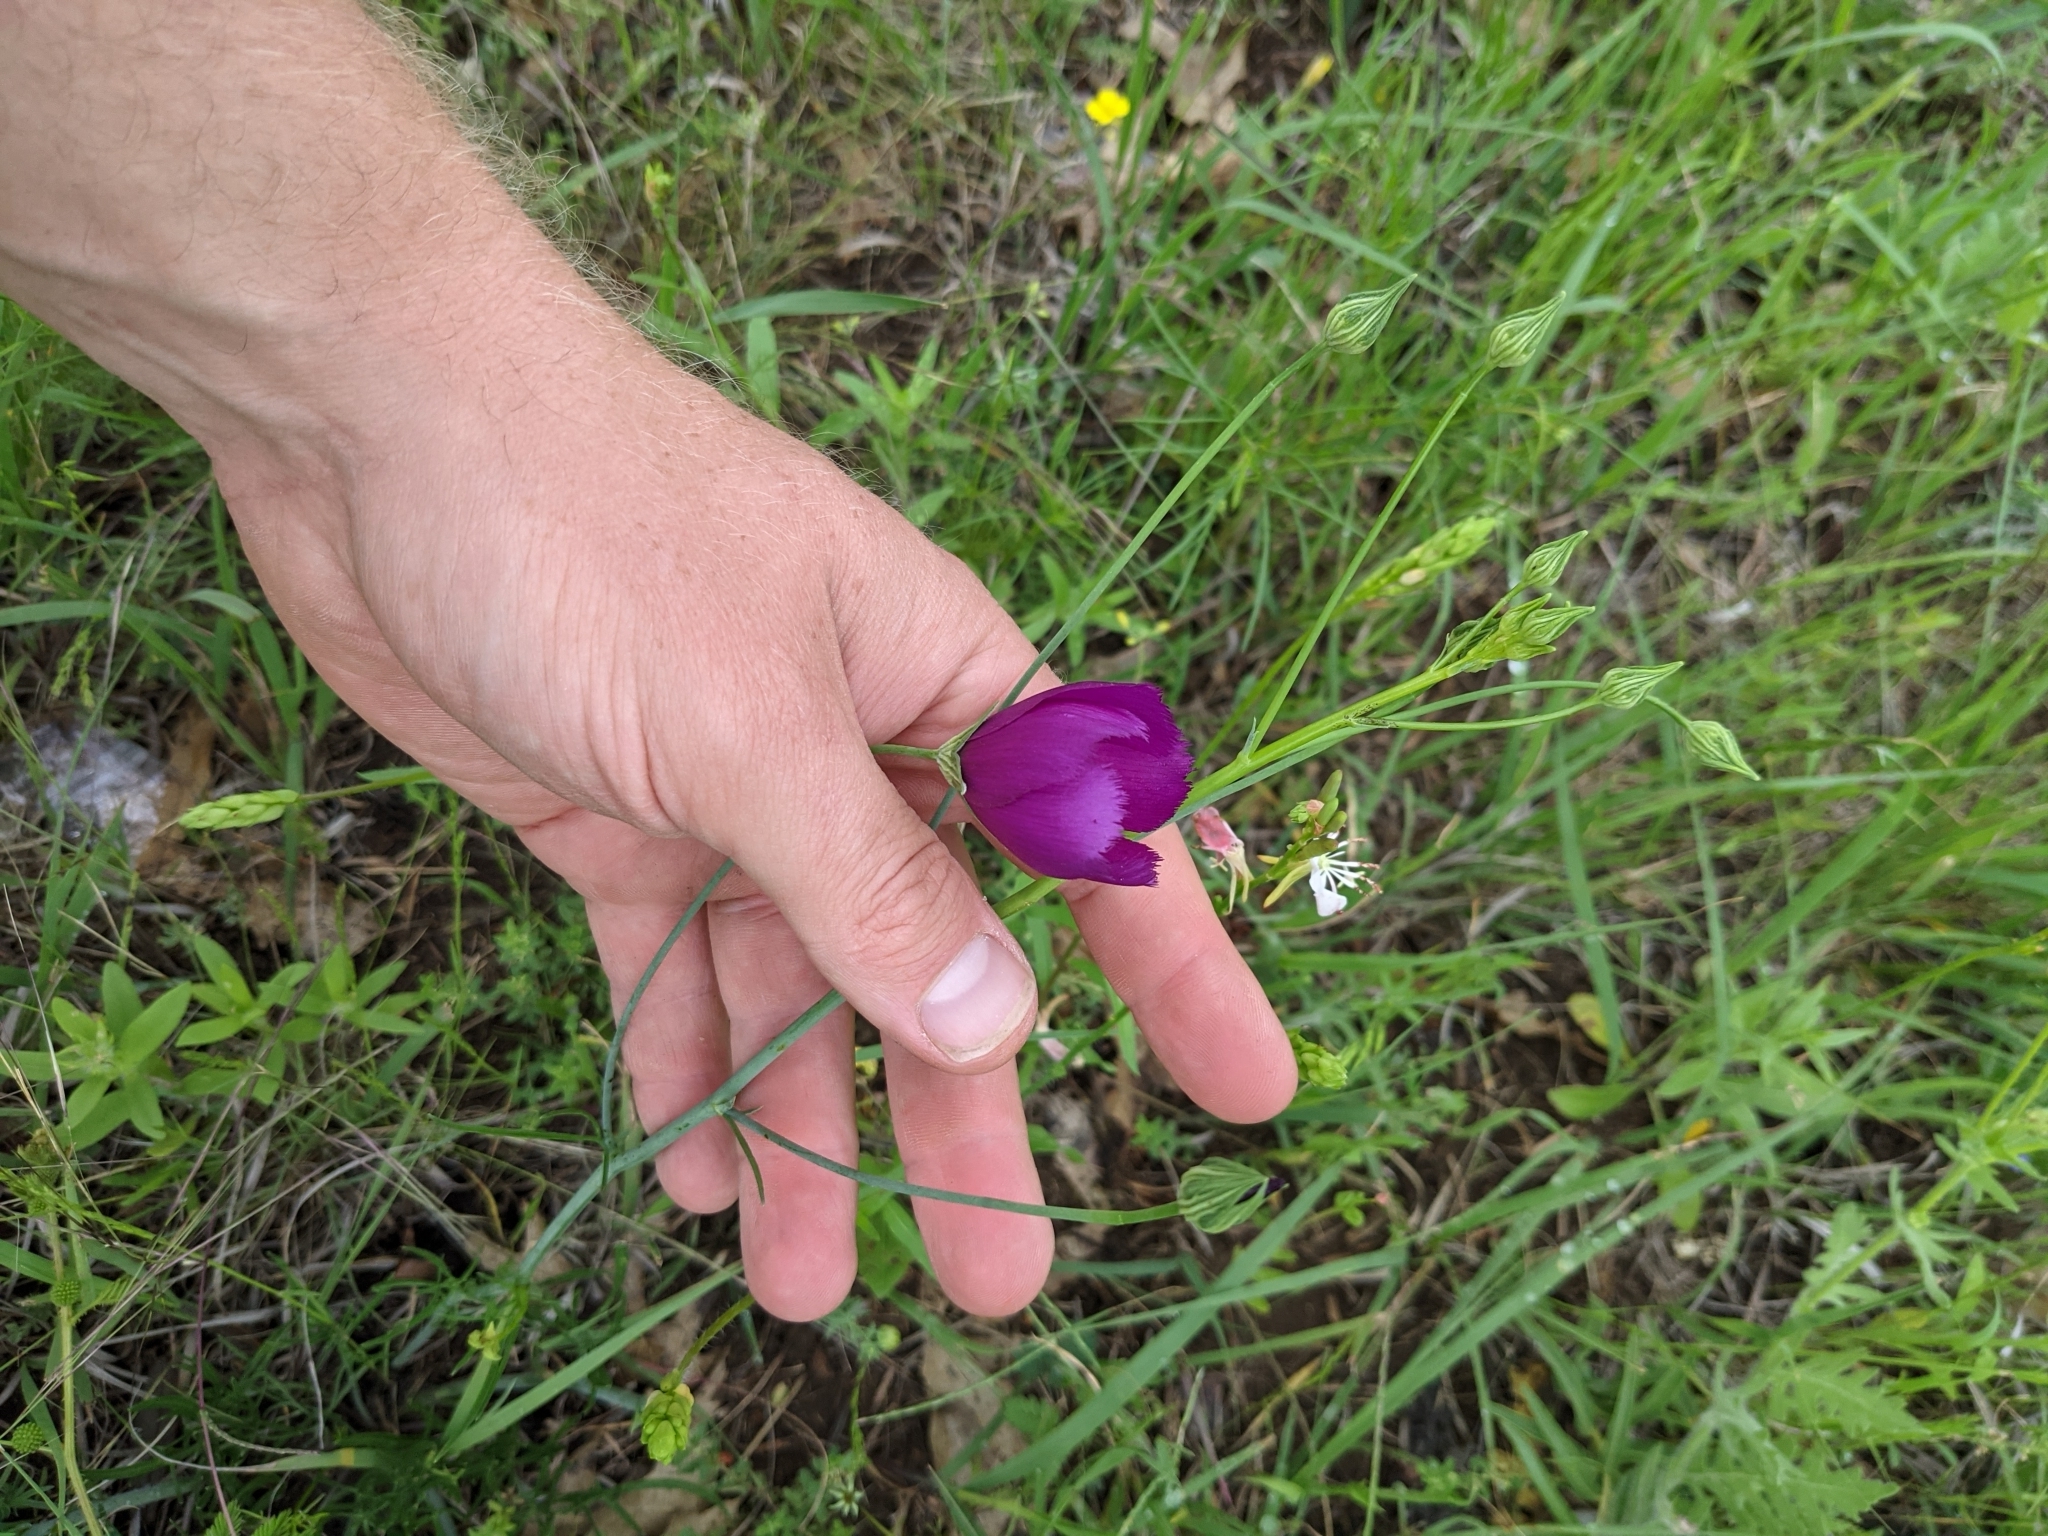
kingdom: Plantae
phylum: Tracheophyta
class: Magnoliopsida
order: Malvales
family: Malvaceae
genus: Callirhoe
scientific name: Callirhoe pedata
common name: Finger poppy-mallow
